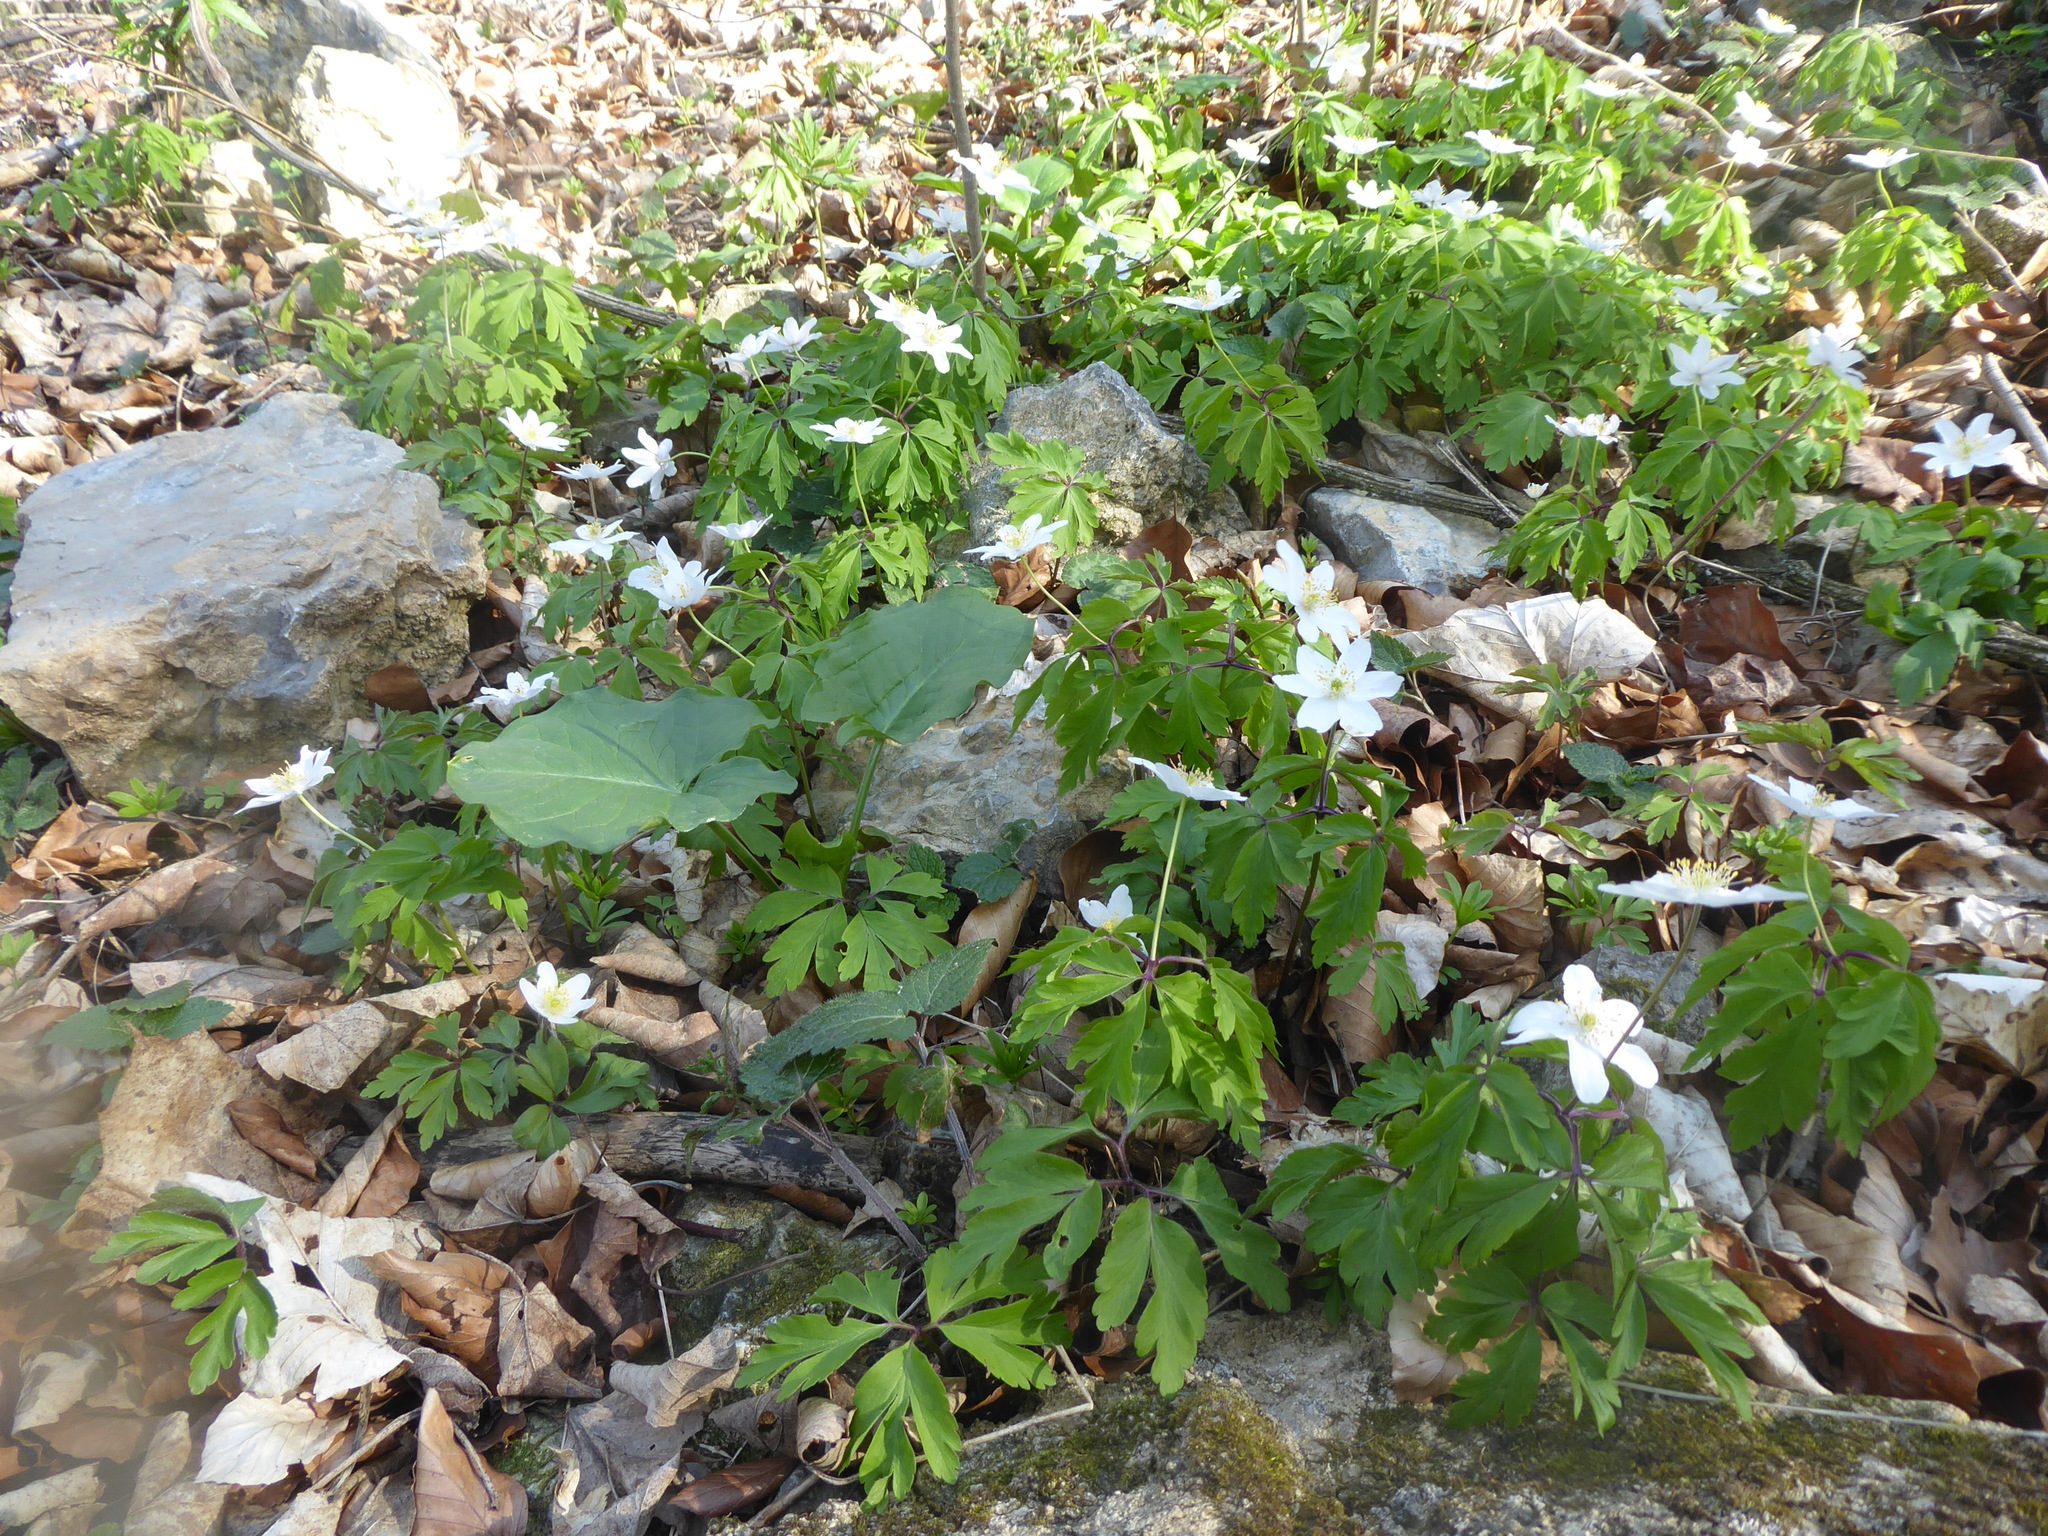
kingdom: Plantae
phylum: Tracheophyta
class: Magnoliopsida
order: Ranunculales
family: Ranunculaceae
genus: Anemone
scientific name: Anemone nemorosa
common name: Wood anemone
